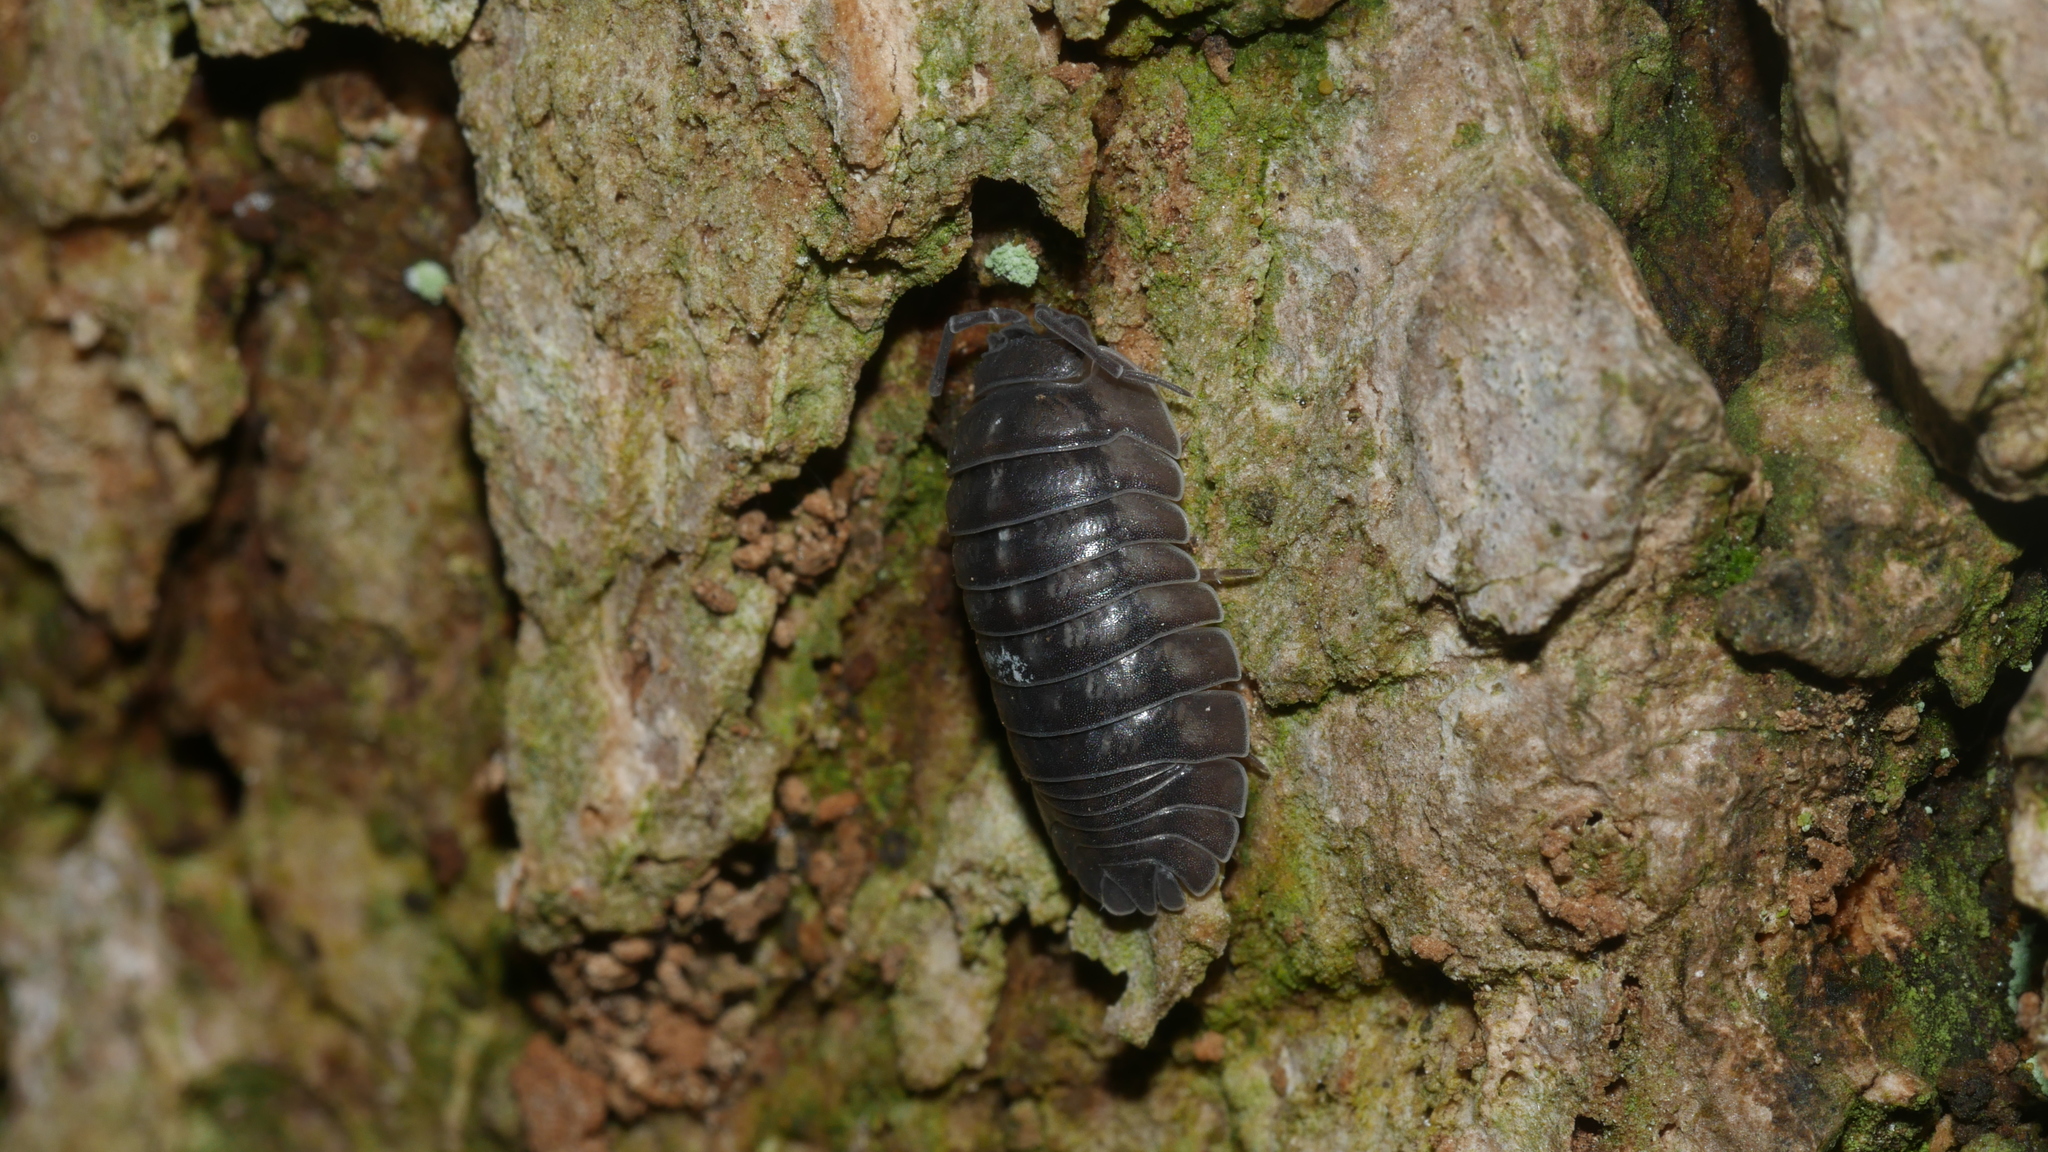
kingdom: Animalia
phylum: Arthropoda
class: Malacostraca
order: Isopoda
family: Armadillidiidae
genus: Armadillidium
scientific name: Armadillidium nasatum
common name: Isopod
